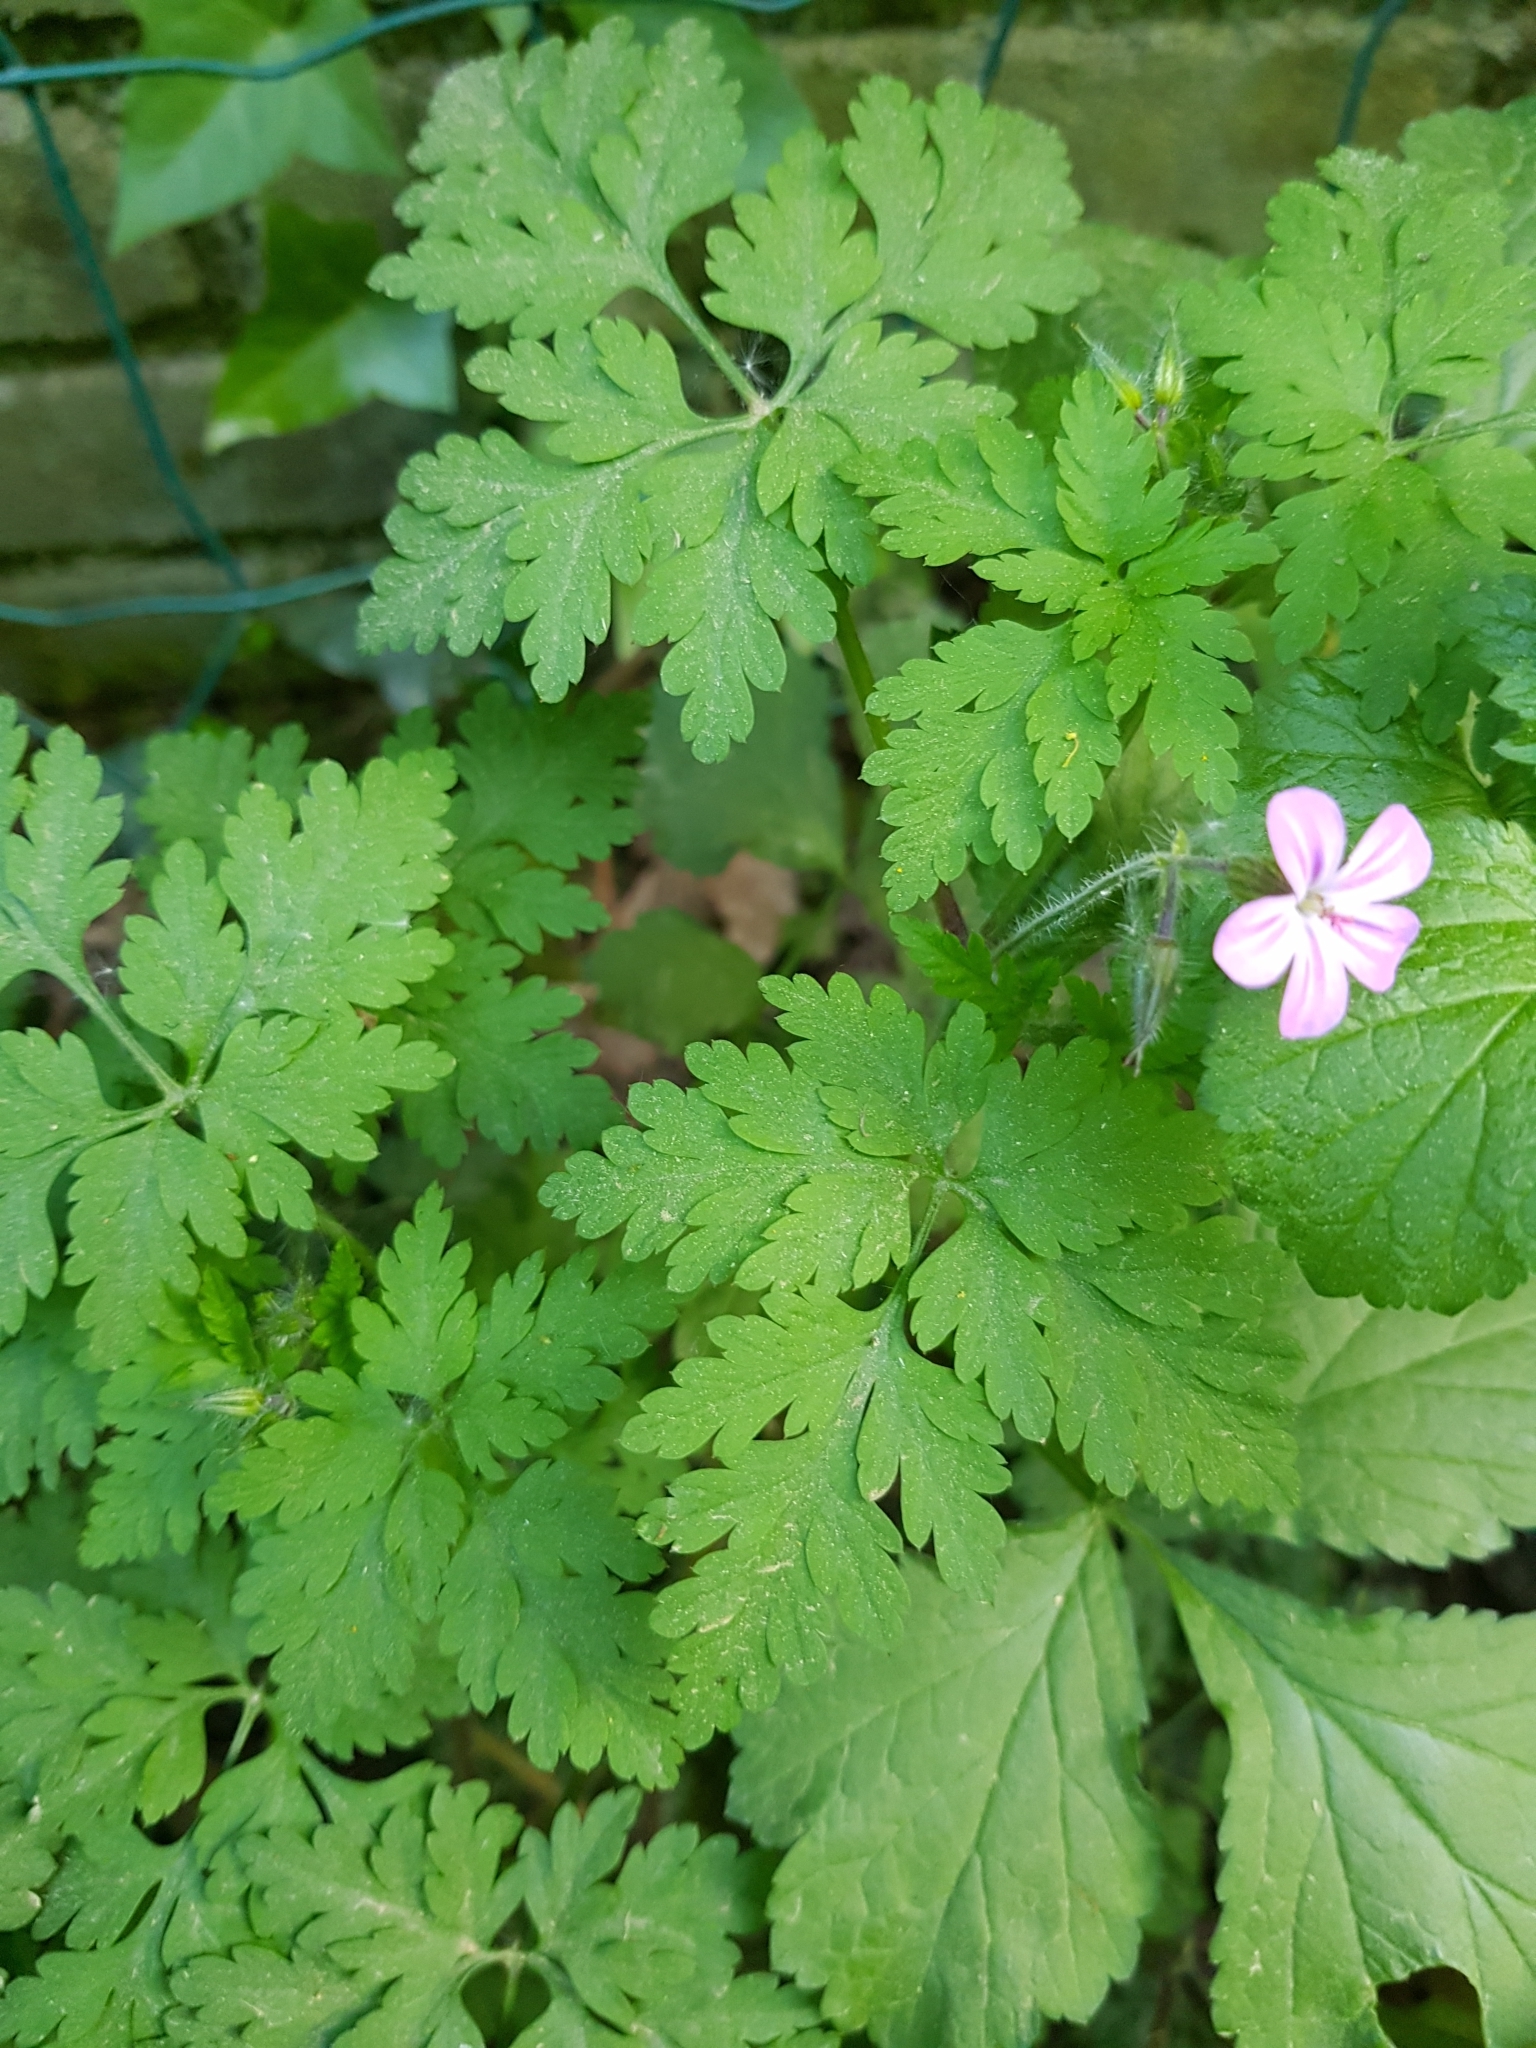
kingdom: Plantae
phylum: Tracheophyta
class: Magnoliopsida
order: Geraniales
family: Geraniaceae
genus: Geranium
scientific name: Geranium robertianum
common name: Herb-robert
